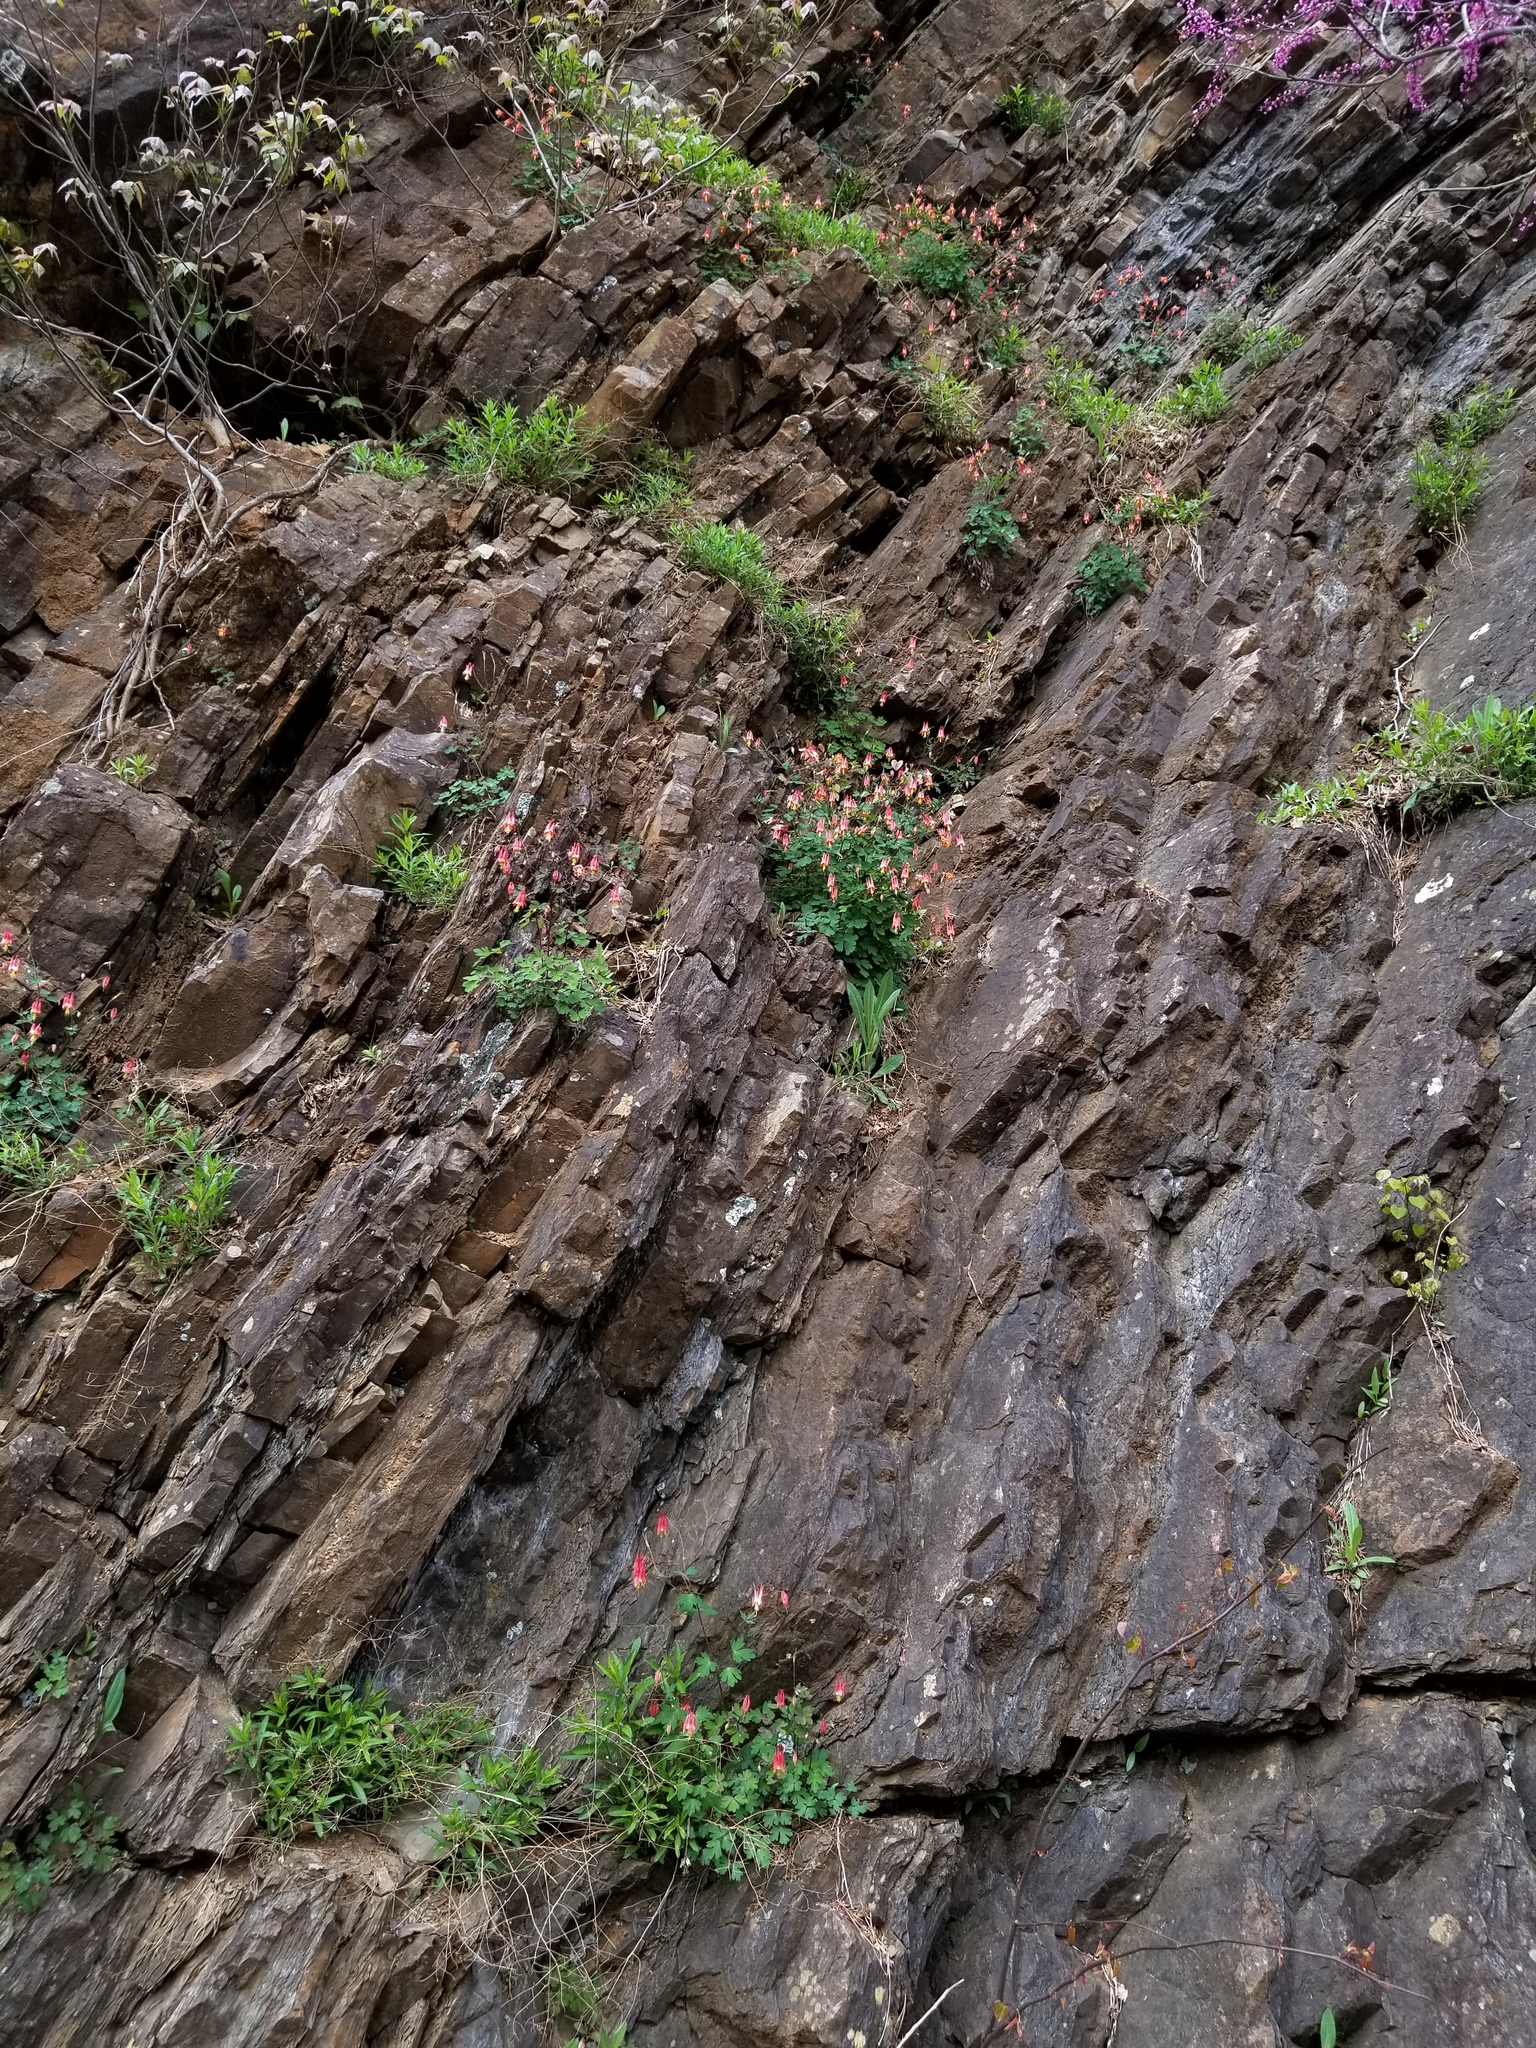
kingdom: Plantae
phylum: Tracheophyta
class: Magnoliopsida
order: Ranunculales
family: Ranunculaceae
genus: Aquilegia
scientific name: Aquilegia canadensis
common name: American columbine
